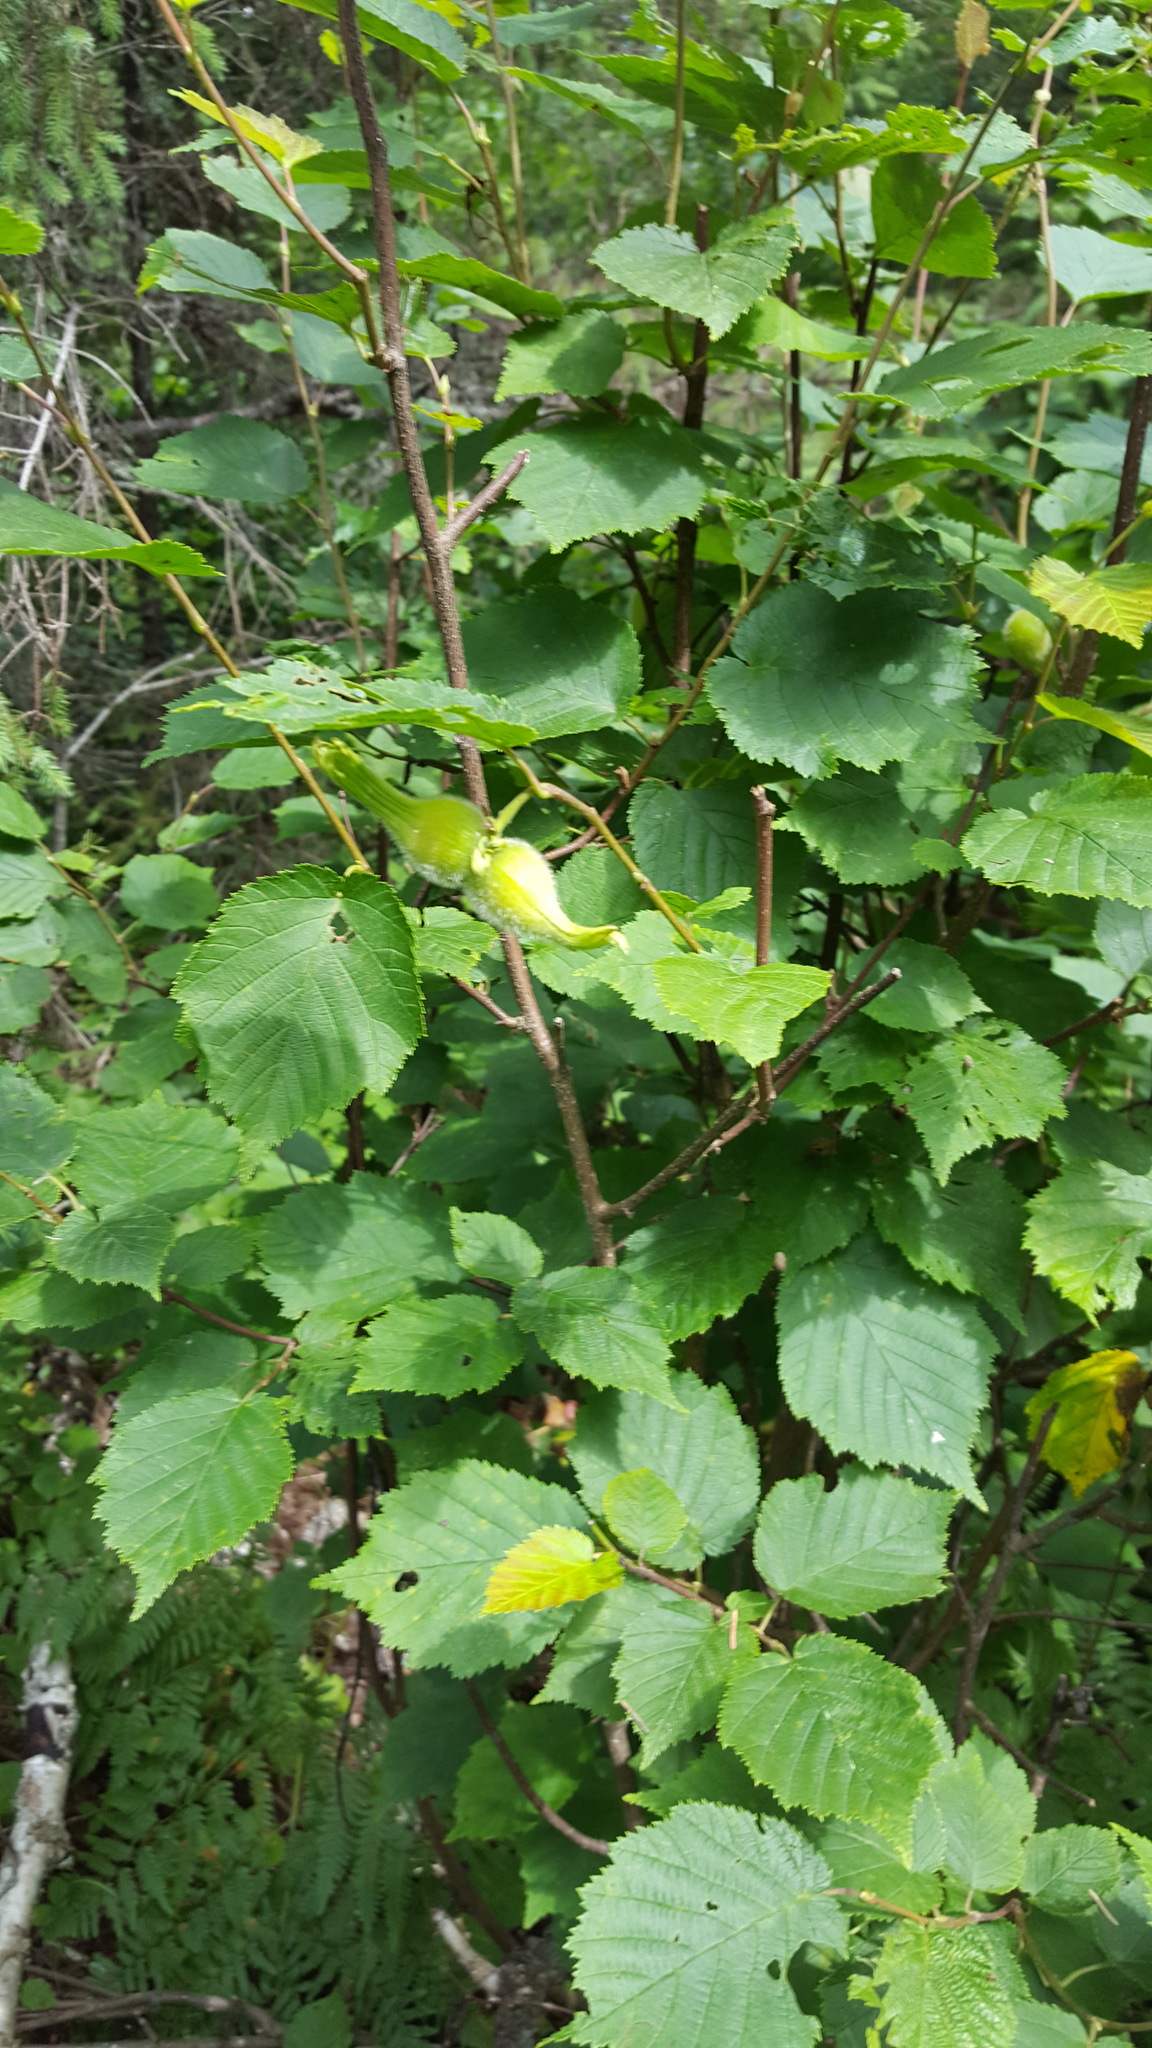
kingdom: Plantae
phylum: Tracheophyta
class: Magnoliopsida
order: Fagales
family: Betulaceae
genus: Corylus
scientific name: Corylus cornuta
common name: Beaked hazel
